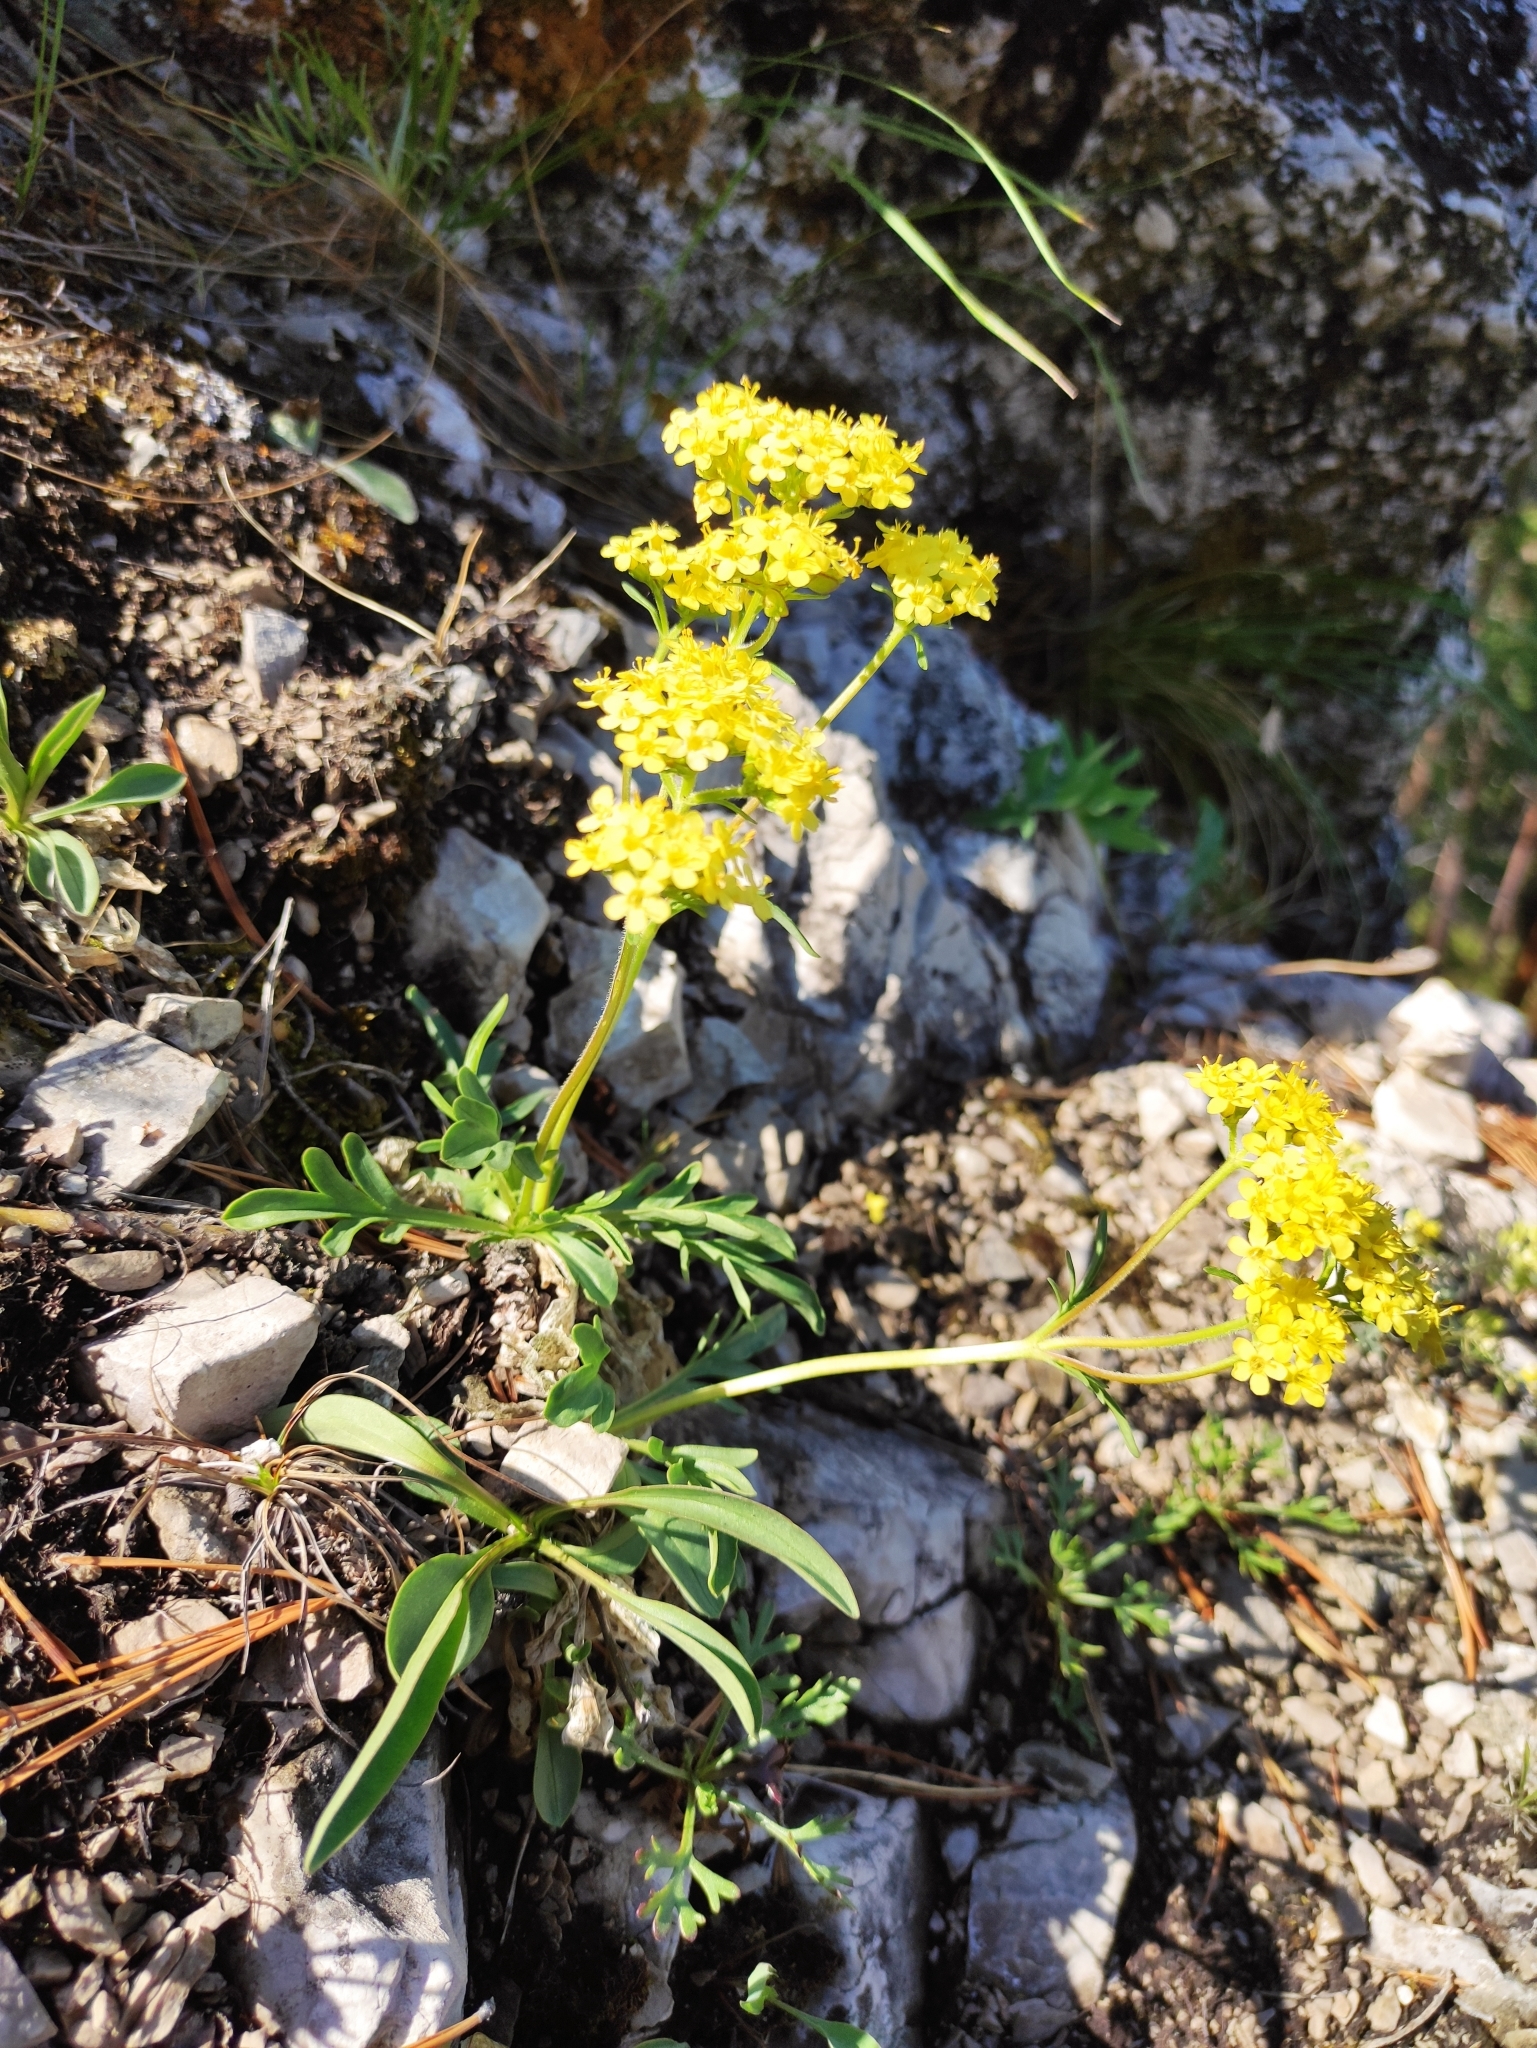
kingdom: Plantae
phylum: Tracheophyta
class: Magnoliopsida
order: Dipsacales
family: Caprifoliaceae
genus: Patrinia
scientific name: Patrinia rupestris
